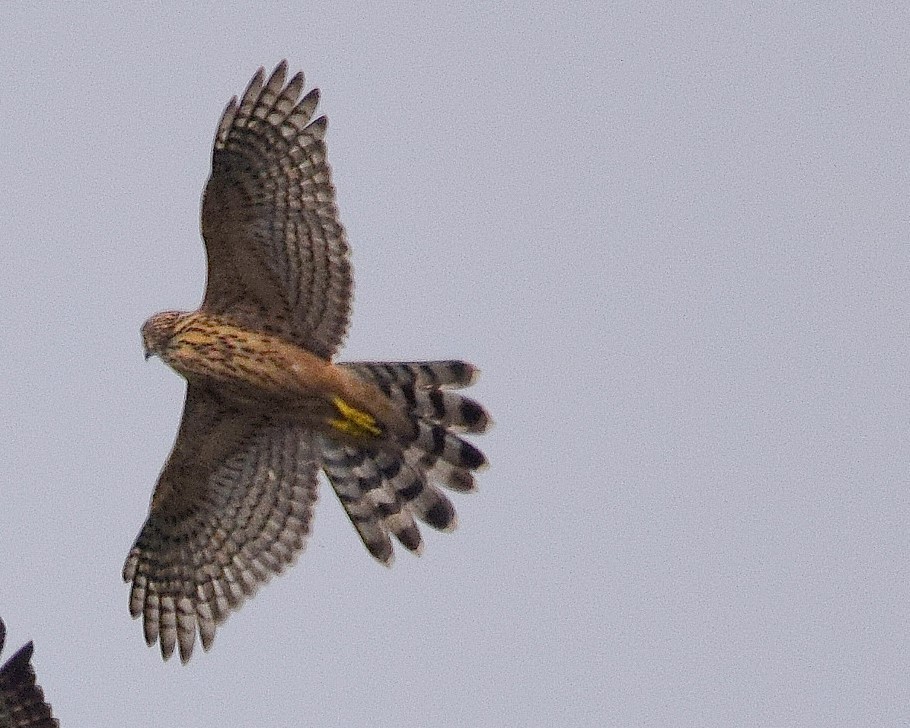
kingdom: Animalia
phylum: Chordata
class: Aves
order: Accipitriformes
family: Accipitridae
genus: Accipiter
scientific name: Accipiter gentilis
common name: Northern goshawk
